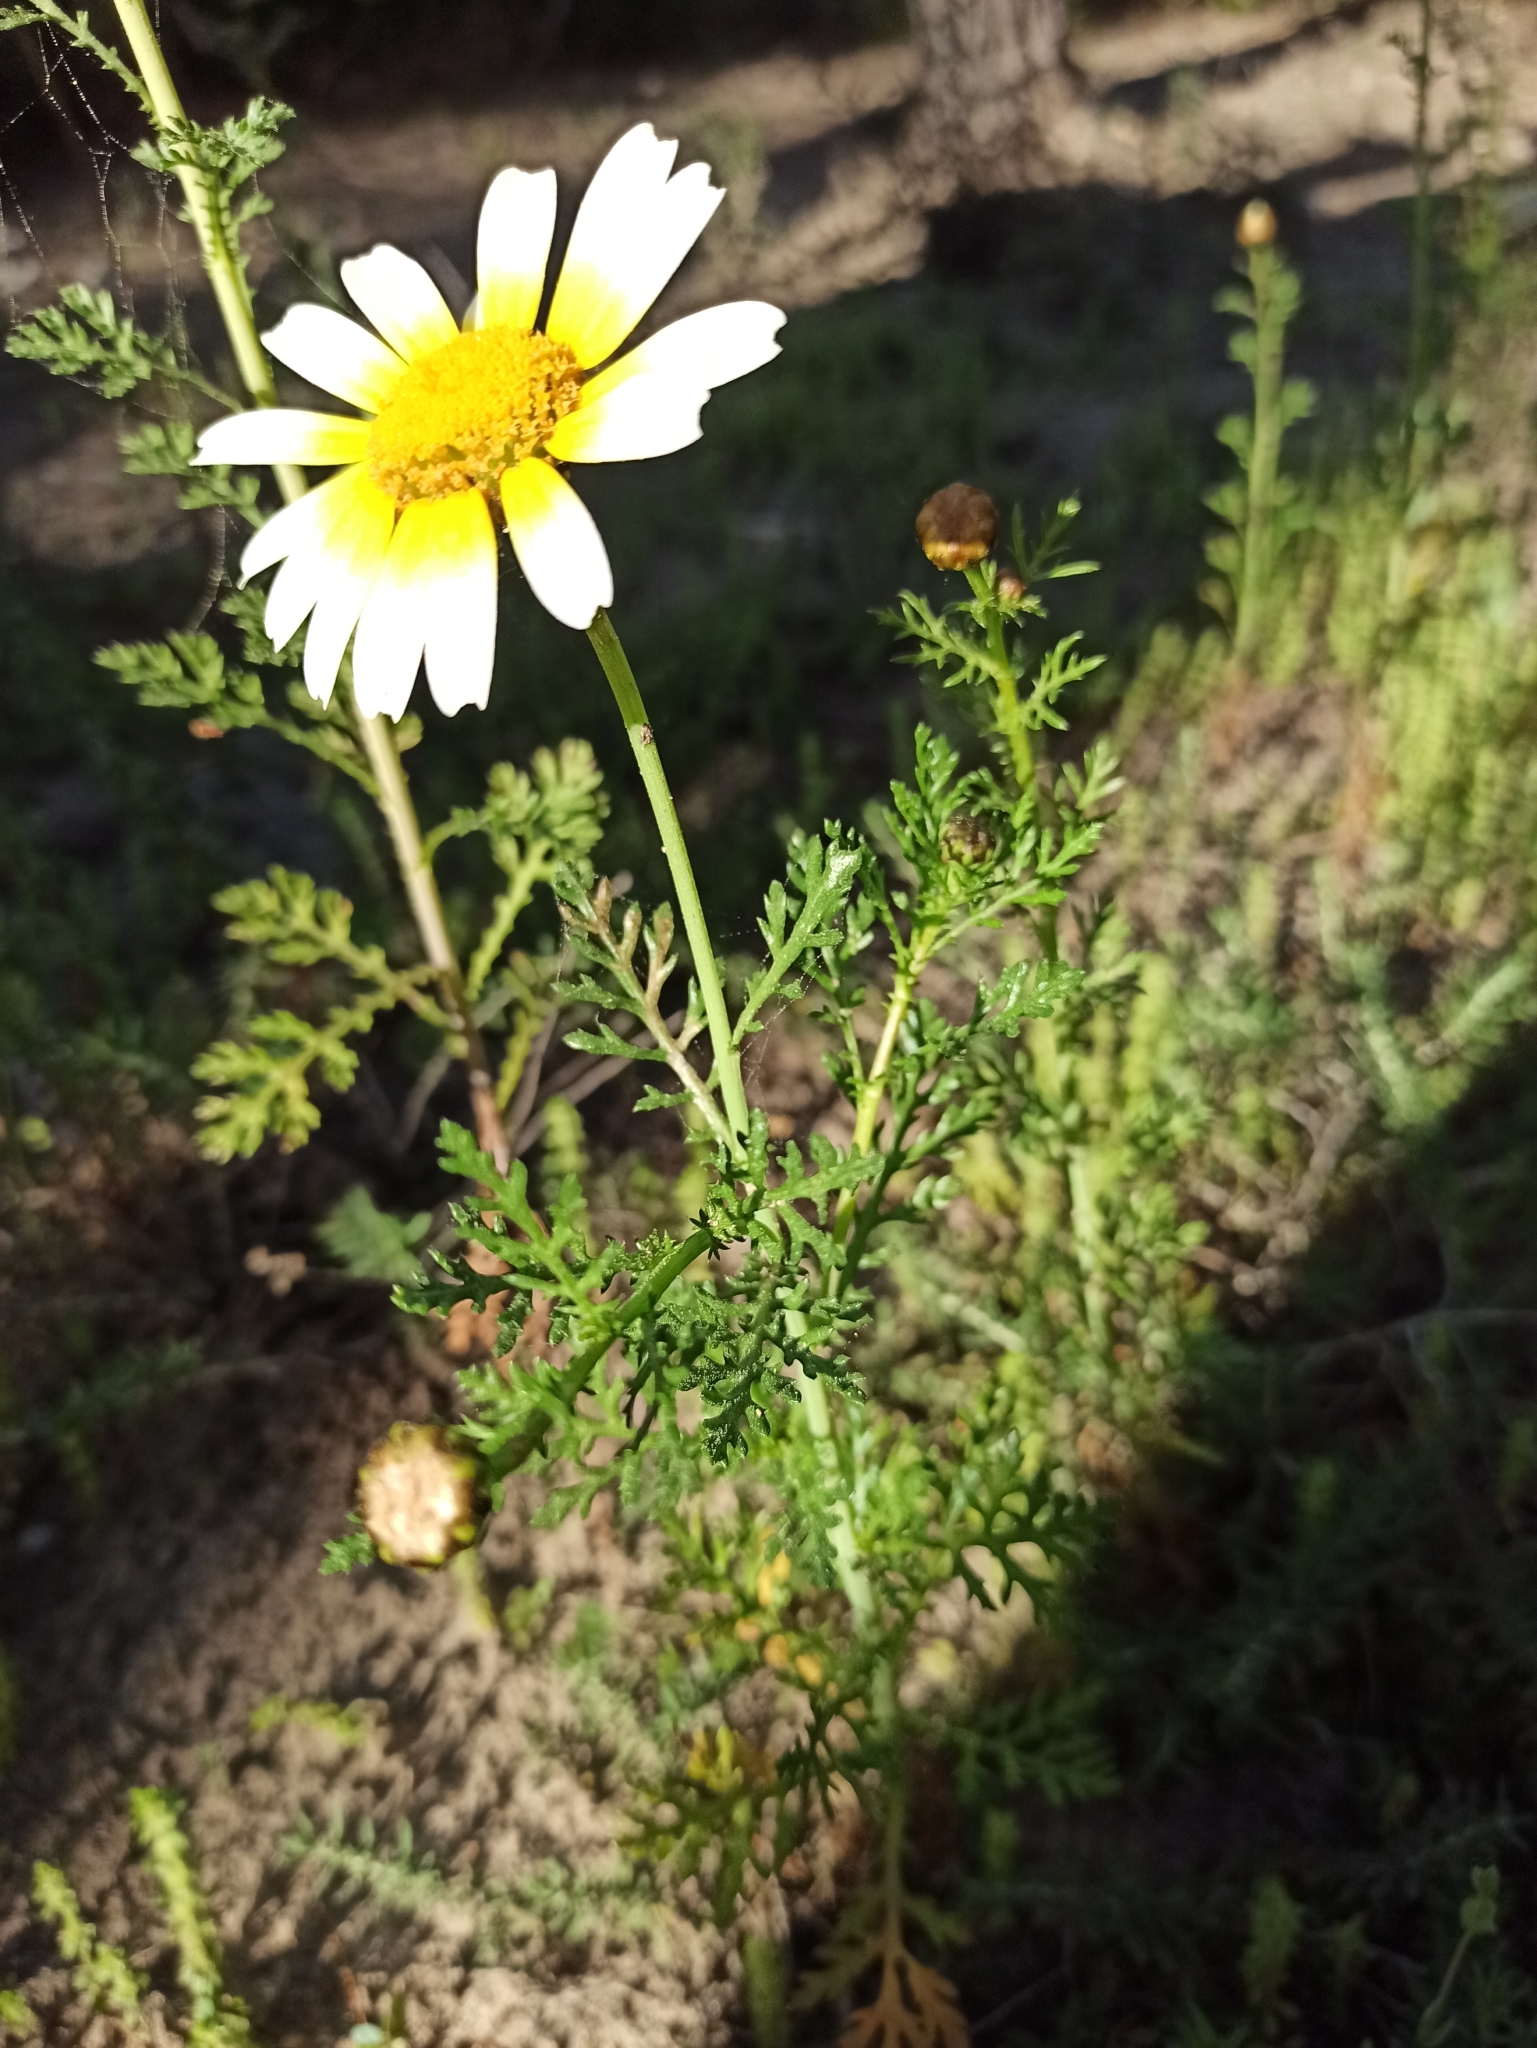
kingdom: Plantae
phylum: Tracheophyta
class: Magnoliopsida
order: Asterales
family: Asteraceae
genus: Glebionis
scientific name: Glebionis coronaria
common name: Crowndaisy
